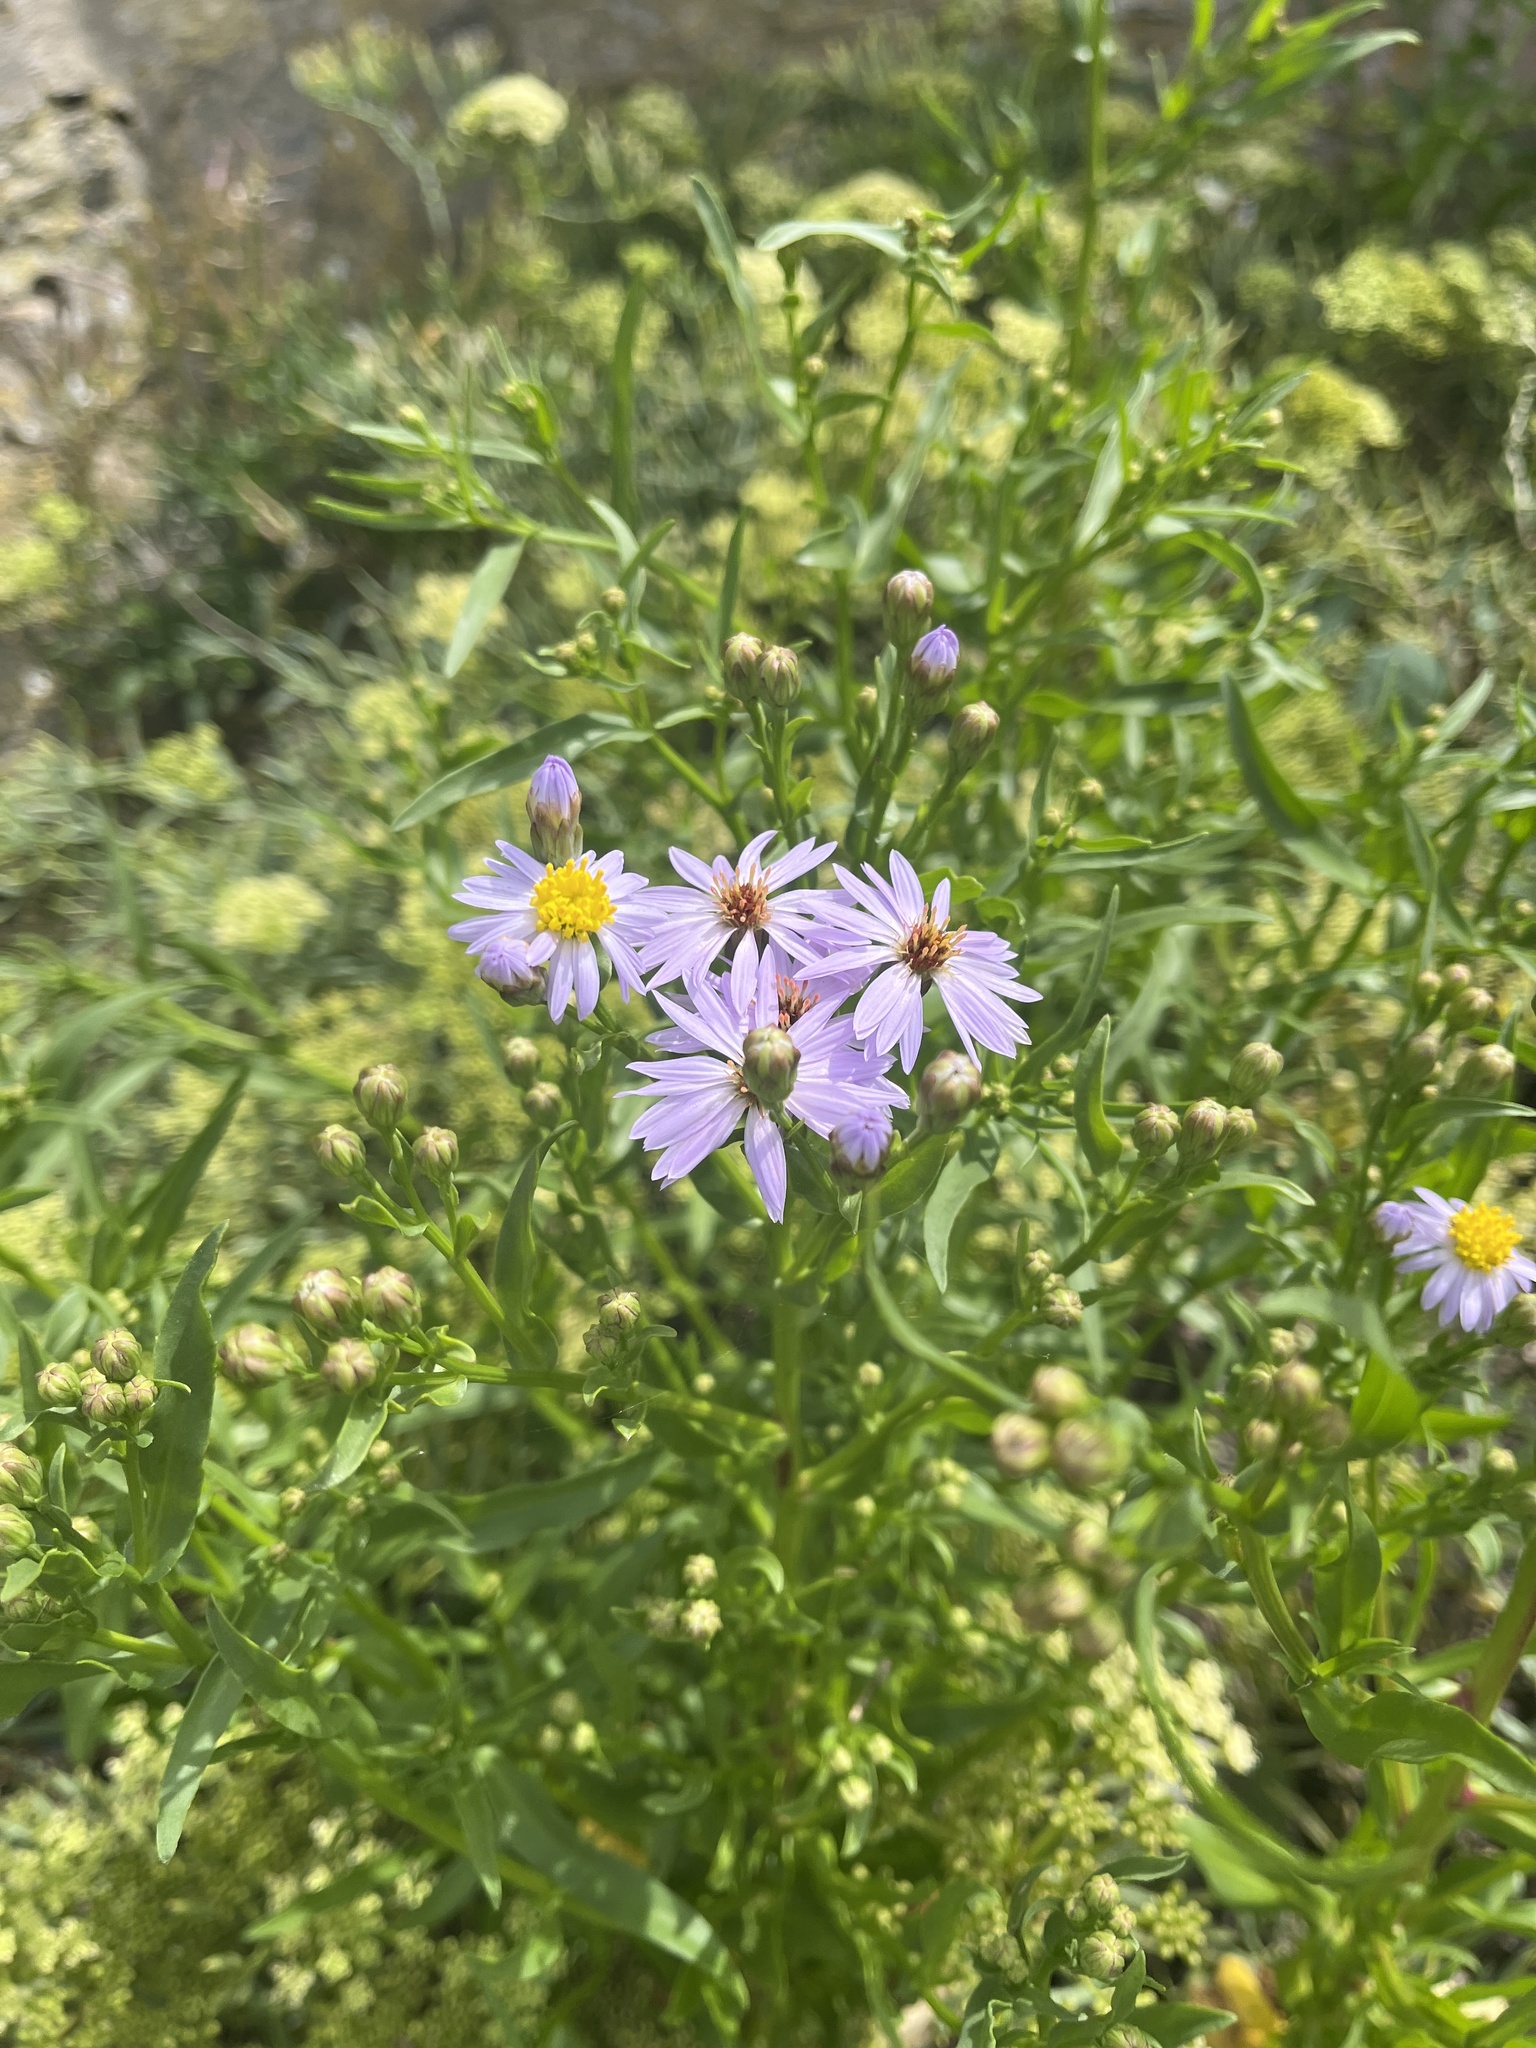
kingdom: Plantae
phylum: Tracheophyta
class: Magnoliopsida
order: Asterales
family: Asteraceae
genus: Tripolium
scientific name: Tripolium pannonicum
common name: Sea aster
